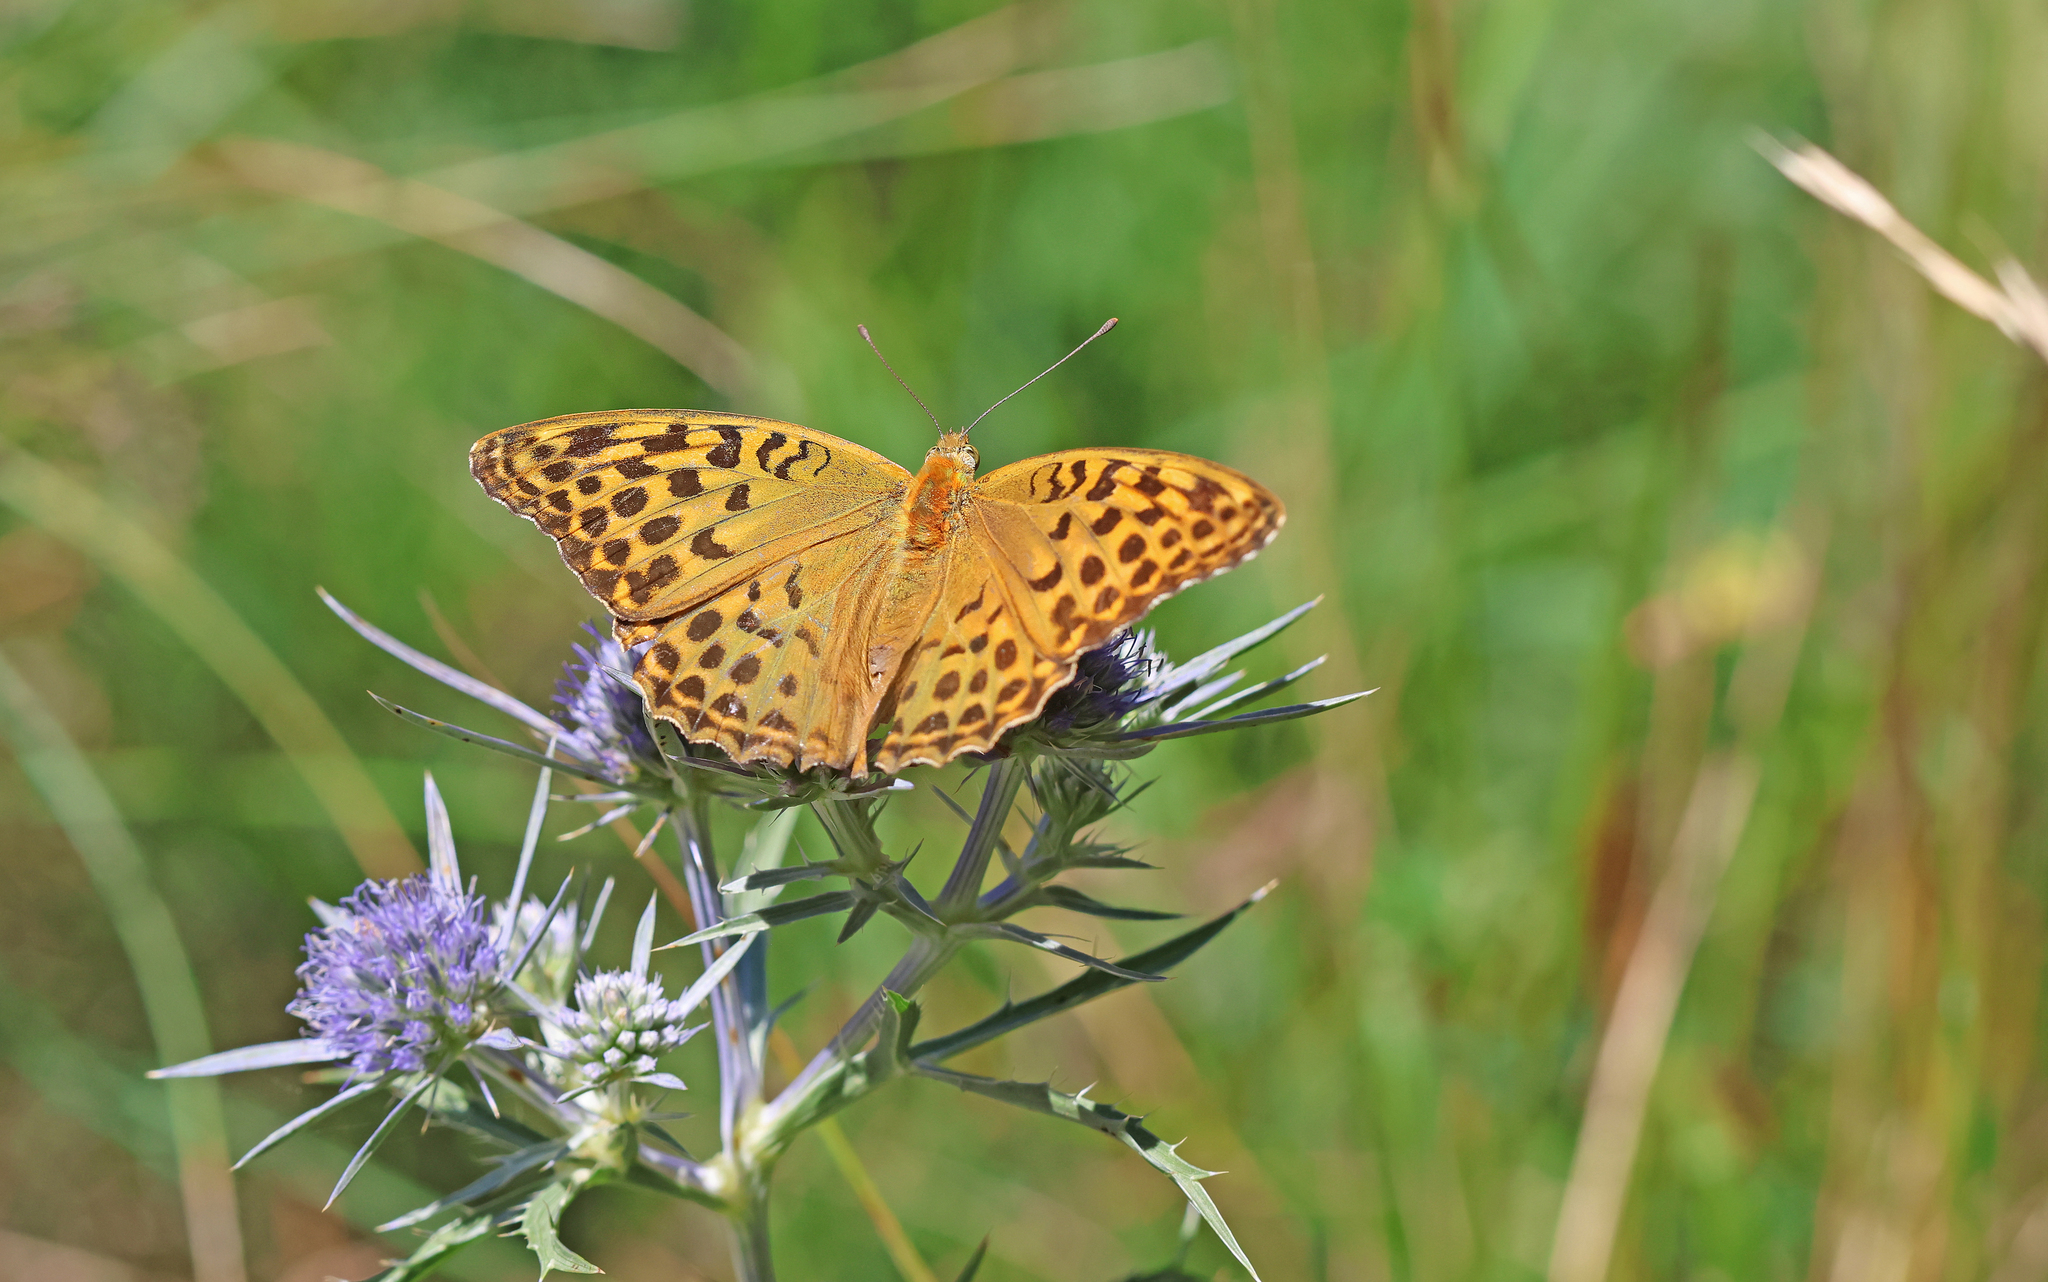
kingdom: Animalia
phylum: Arthropoda
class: Insecta
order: Lepidoptera
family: Nymphalidae
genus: Argynnis
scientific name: Argynnis paphia
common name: Silver-washed fritillary
